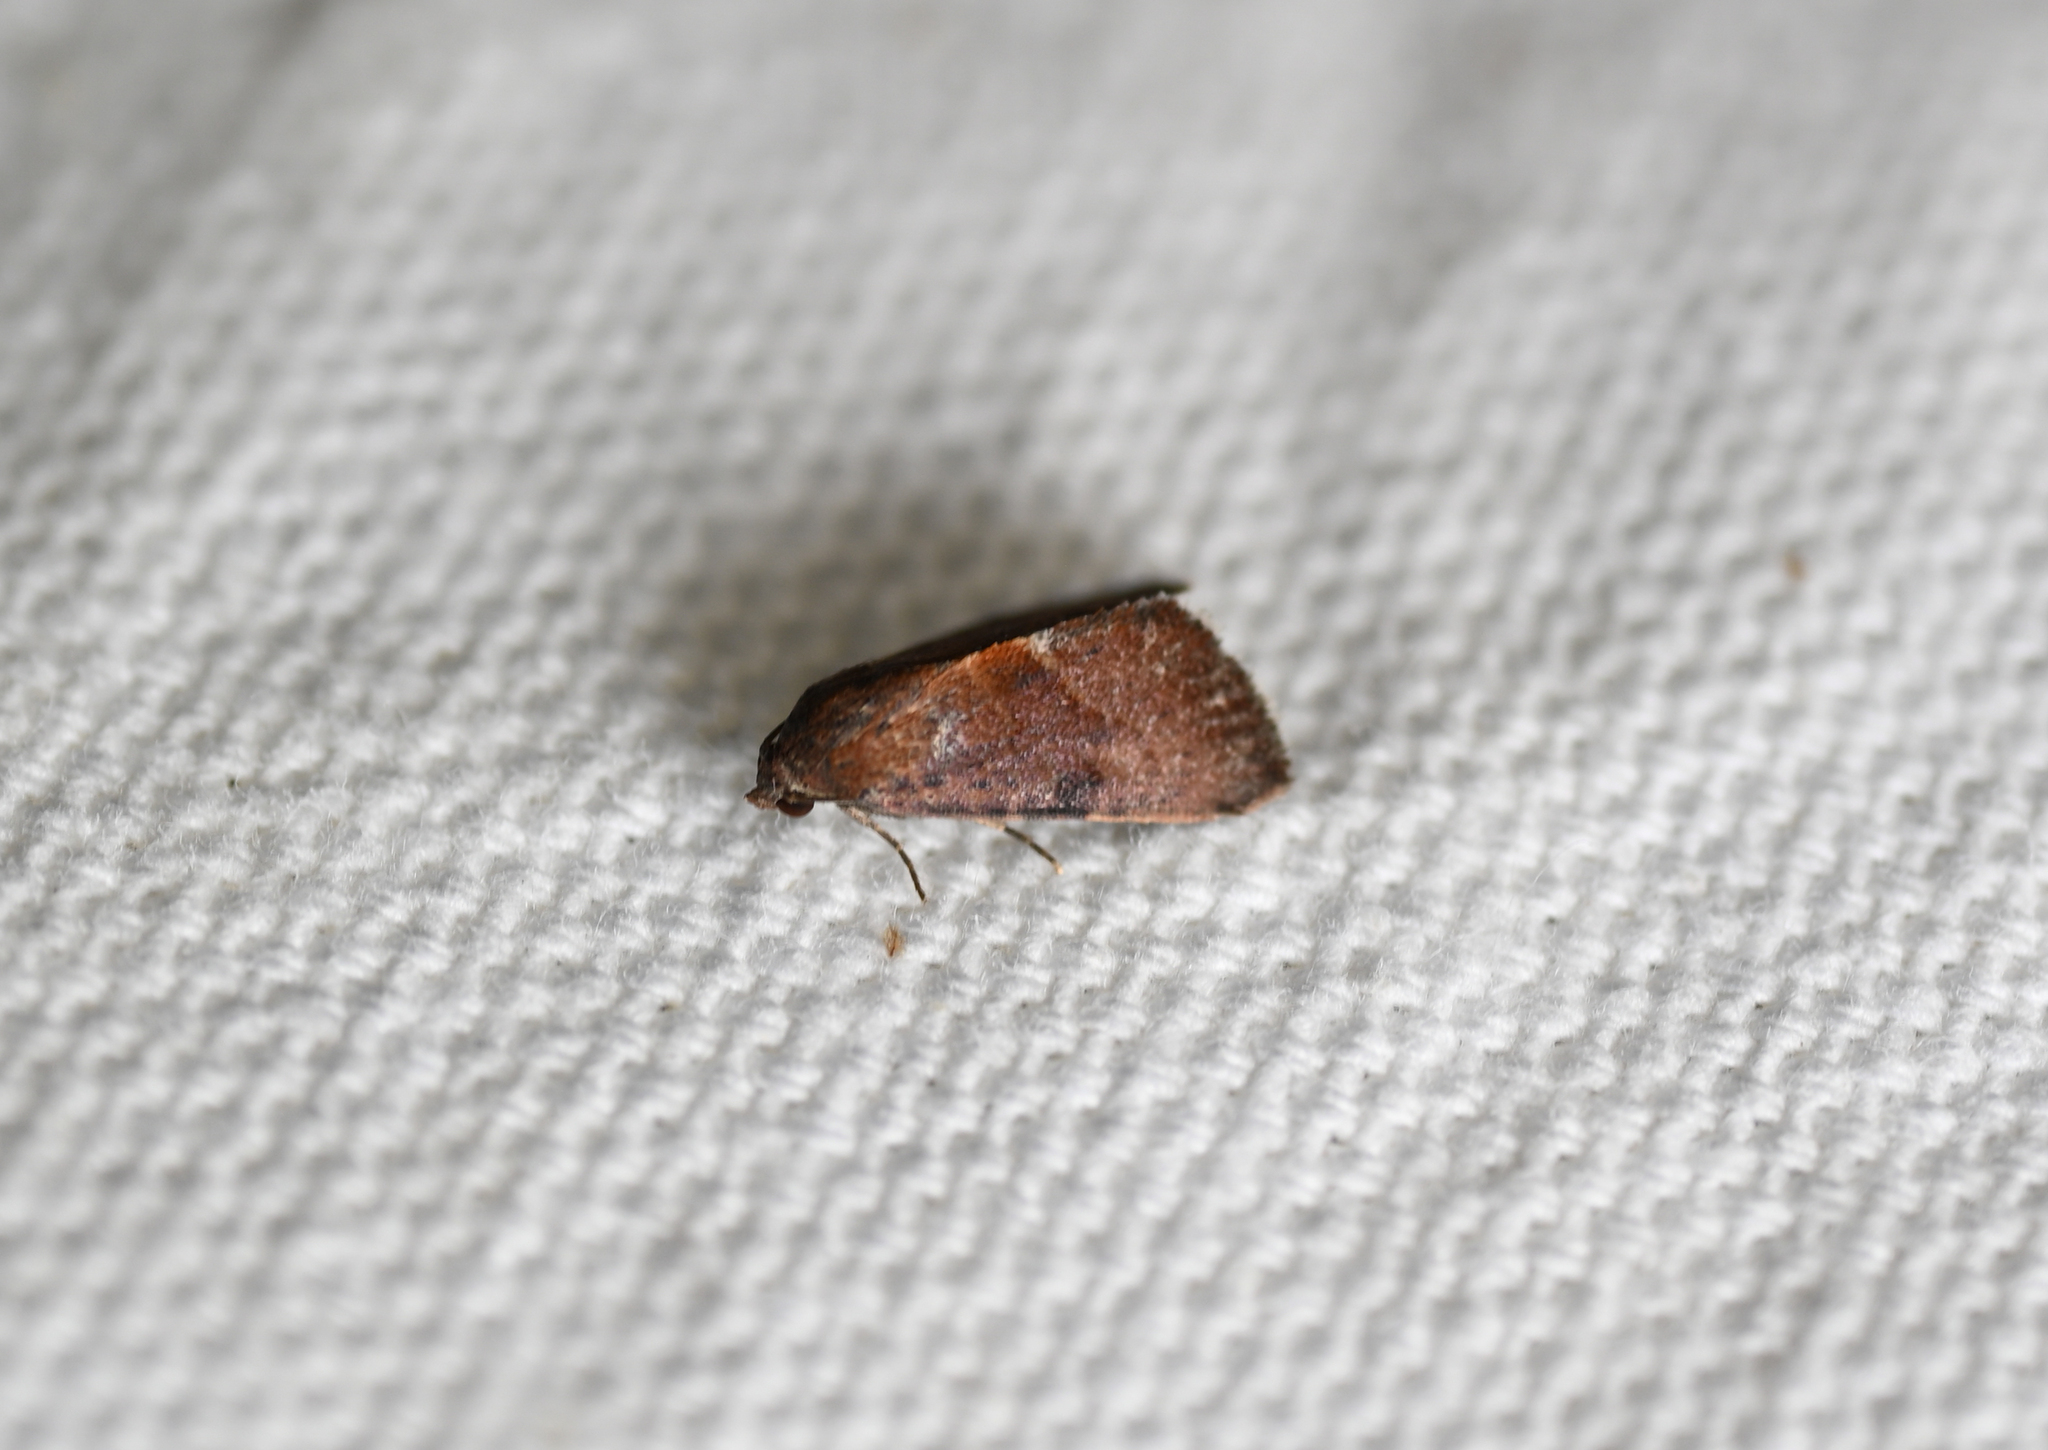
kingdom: Animalia
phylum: Arthropoda
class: Insecta
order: Lepidoptera
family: Noctuidae
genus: Galgula
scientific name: Galgula partita
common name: Wedgeling
